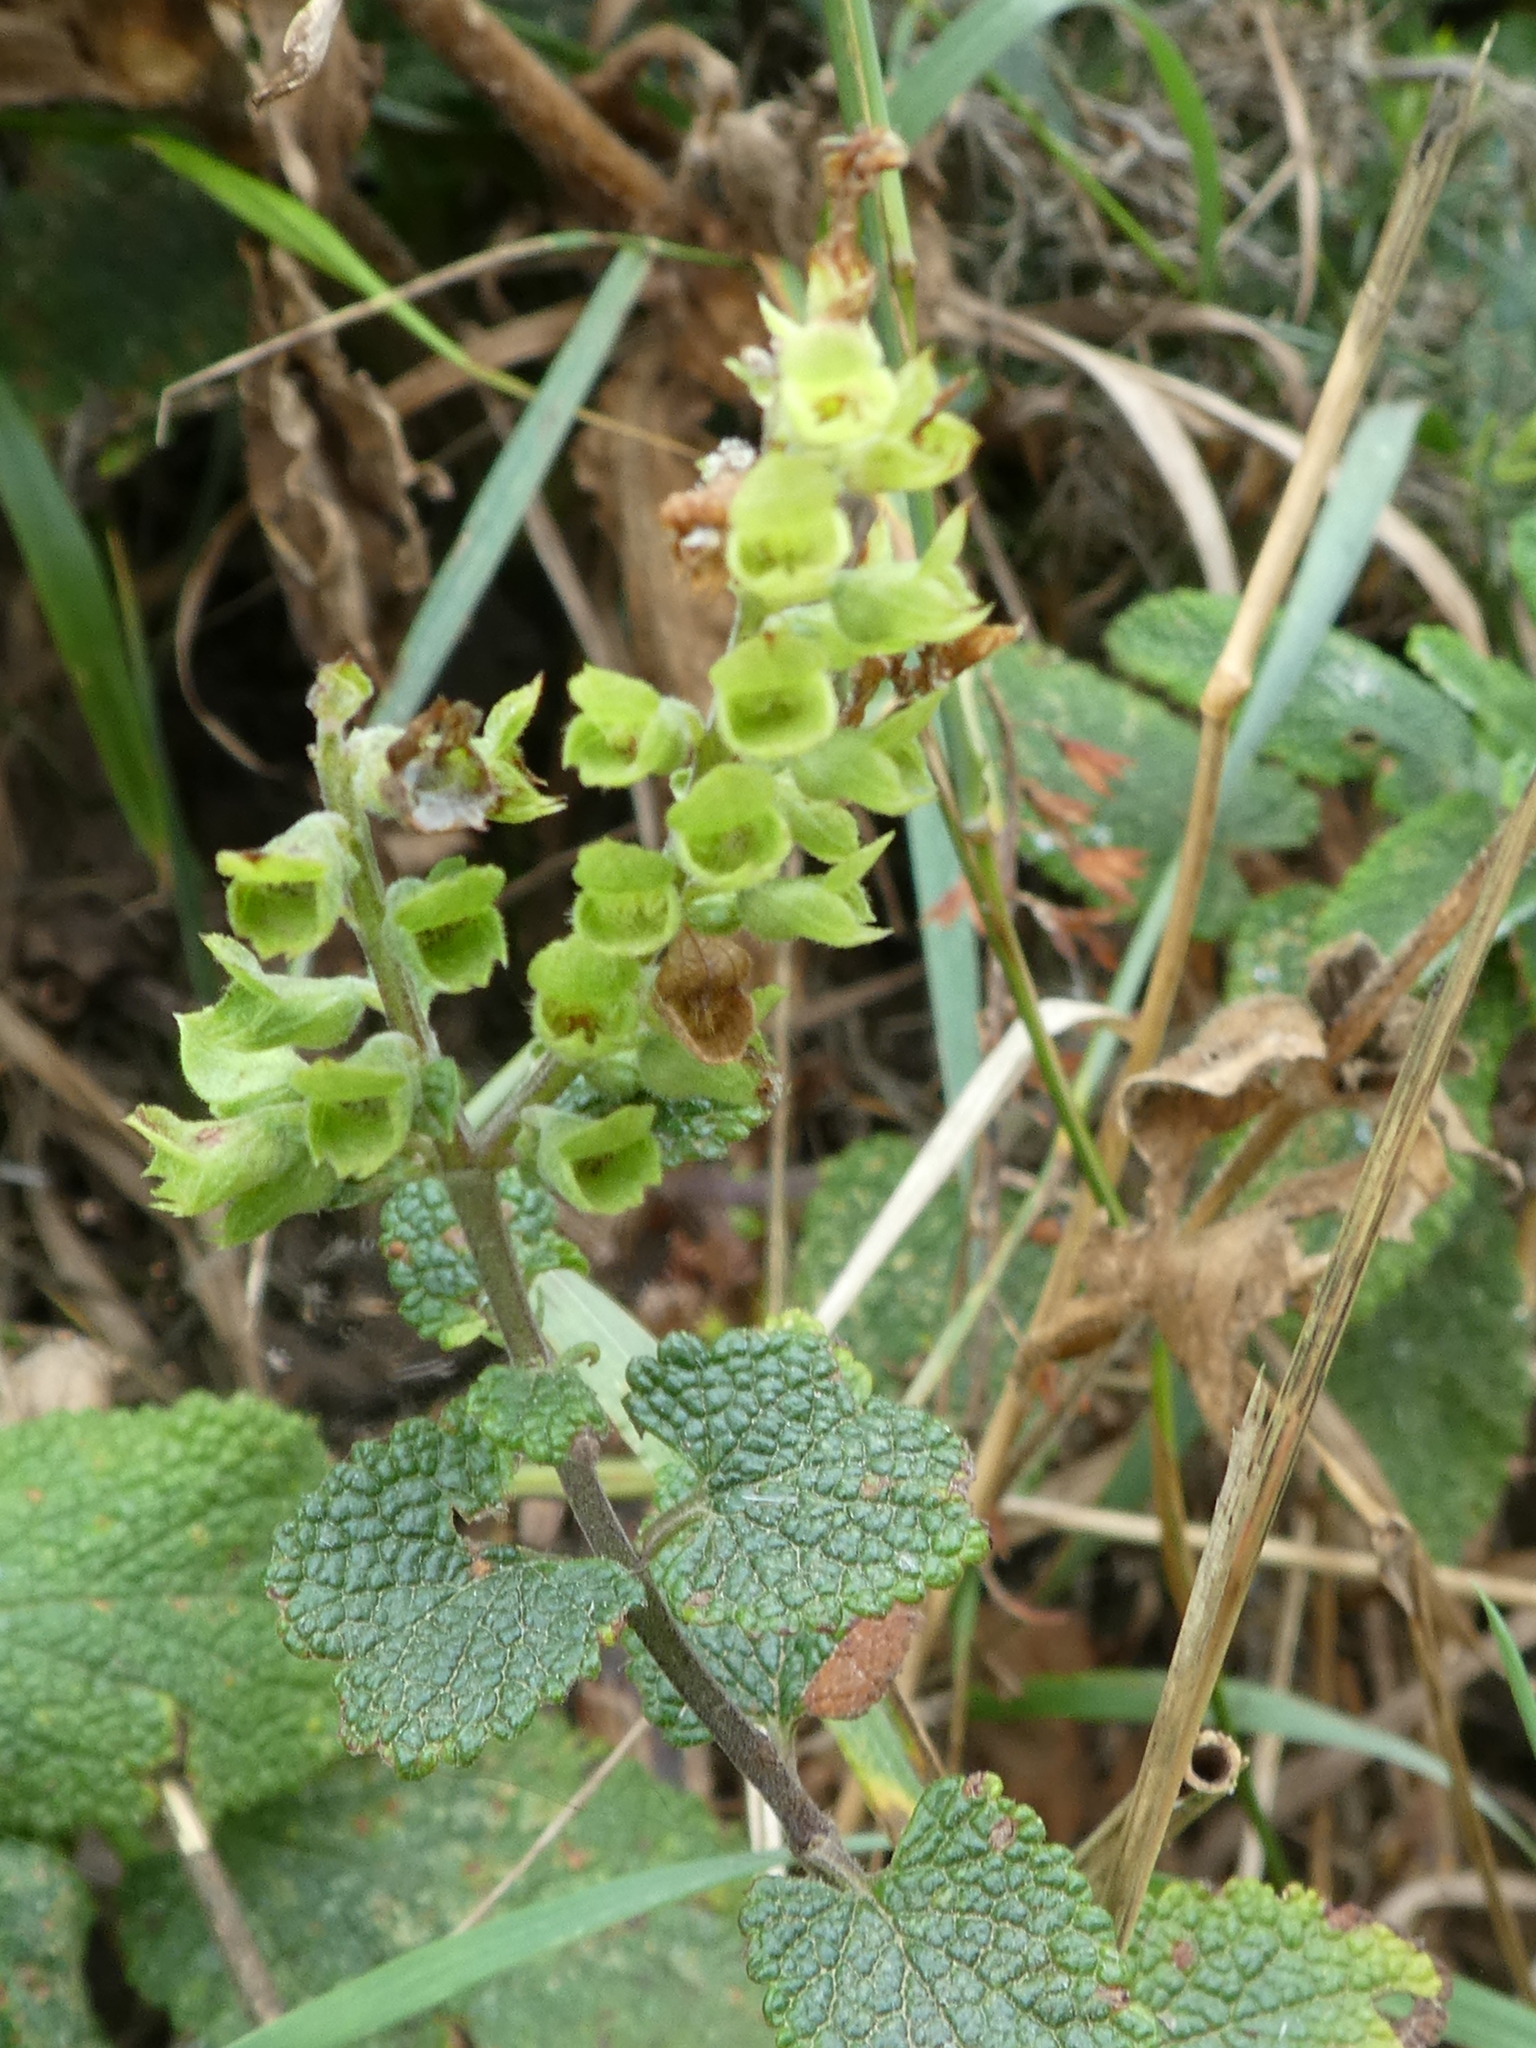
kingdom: Plantae
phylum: Tracheophyta
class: Magnoliopsida
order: Lamiales
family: Lamiaceae
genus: Teucrium
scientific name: Teucrium scorodonia
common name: Woodland germander
